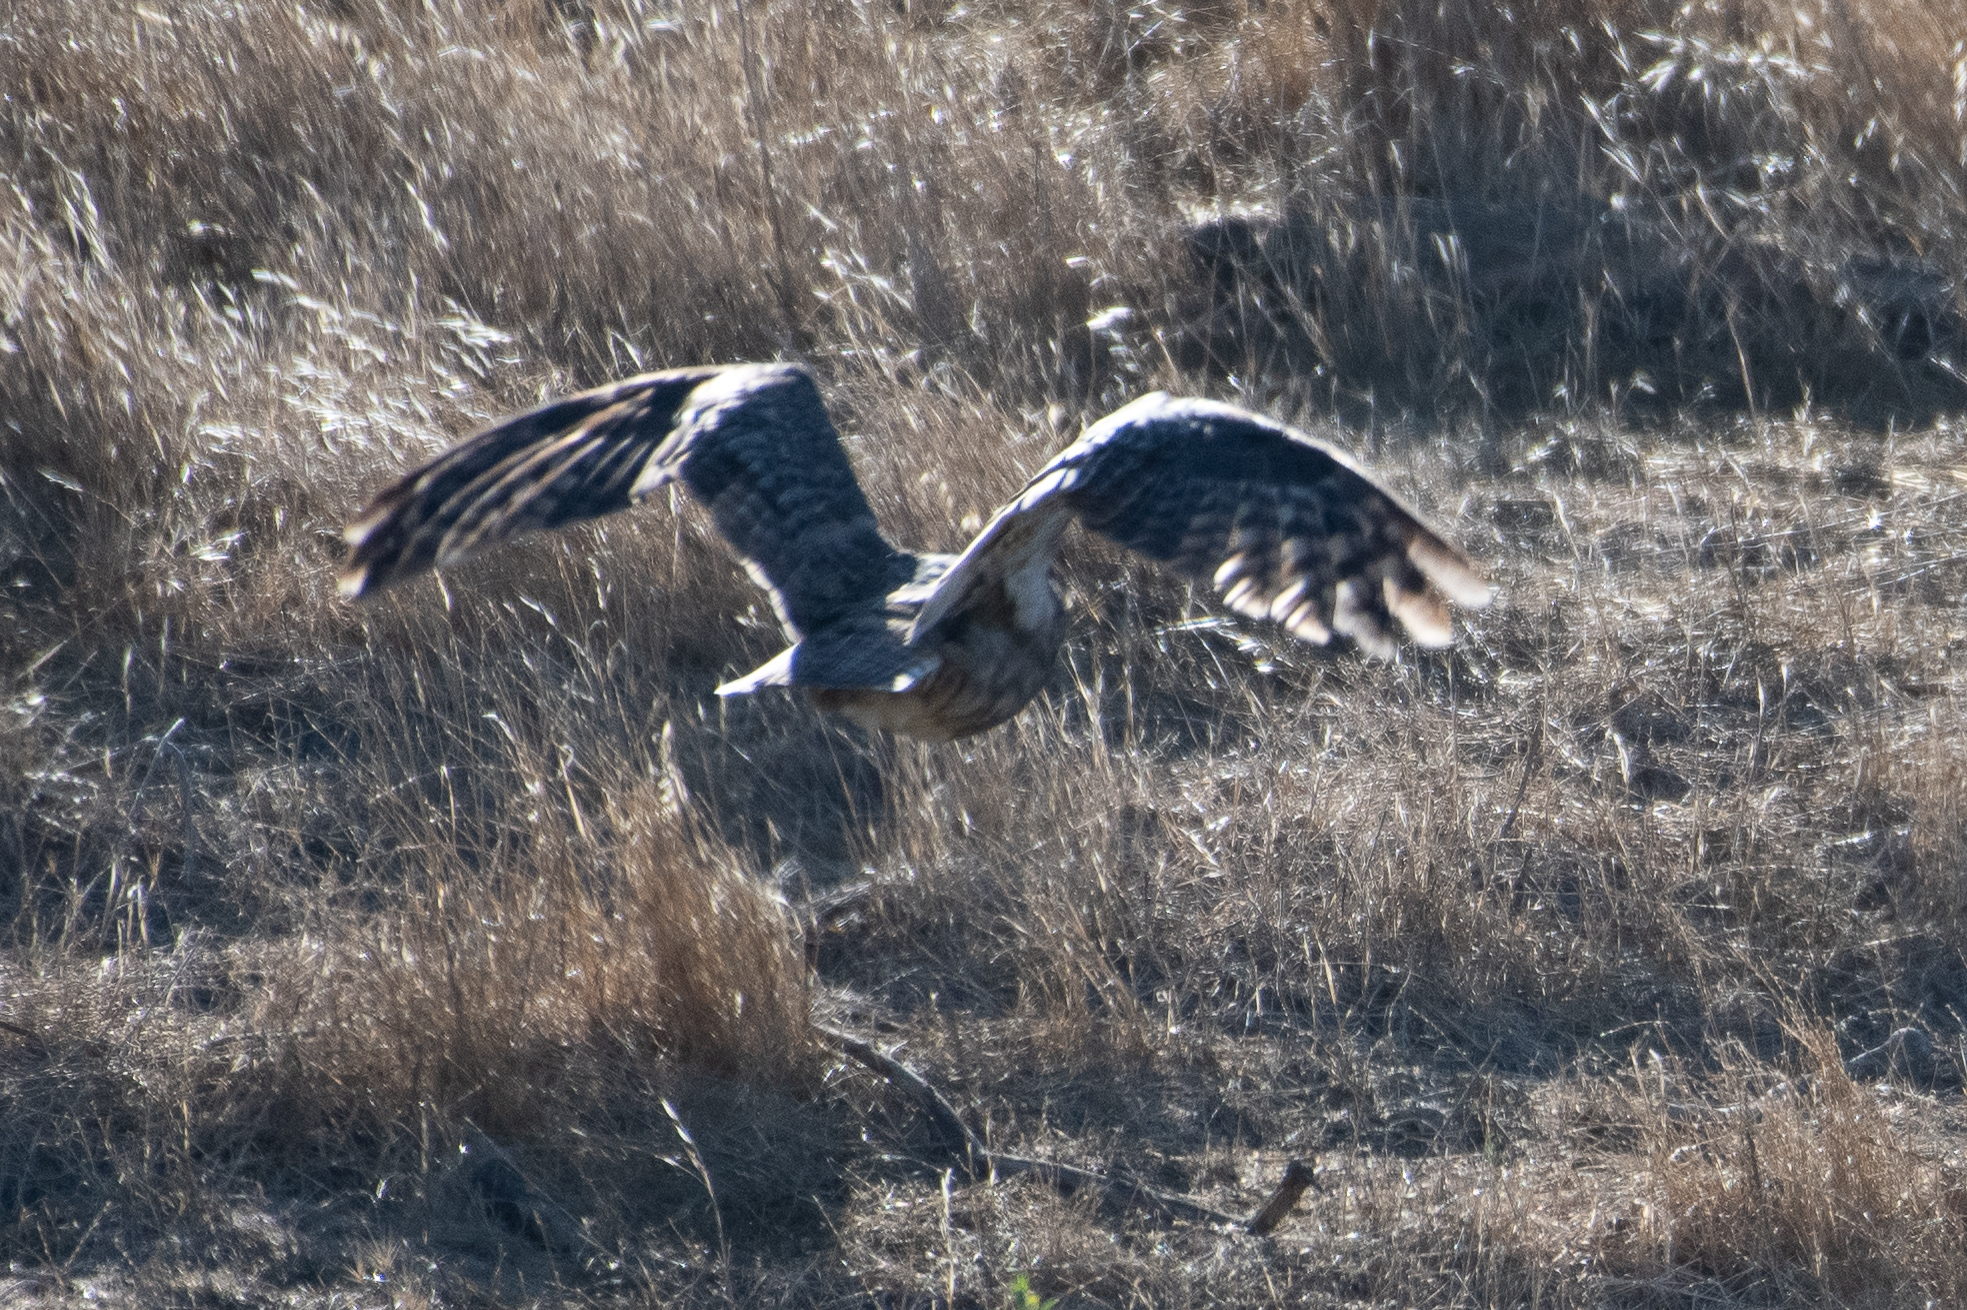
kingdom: Animalia
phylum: Chordata
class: Aves
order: Strigiformes
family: Strigidae
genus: Bubo
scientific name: Bubo virginianus
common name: Great horned owl
